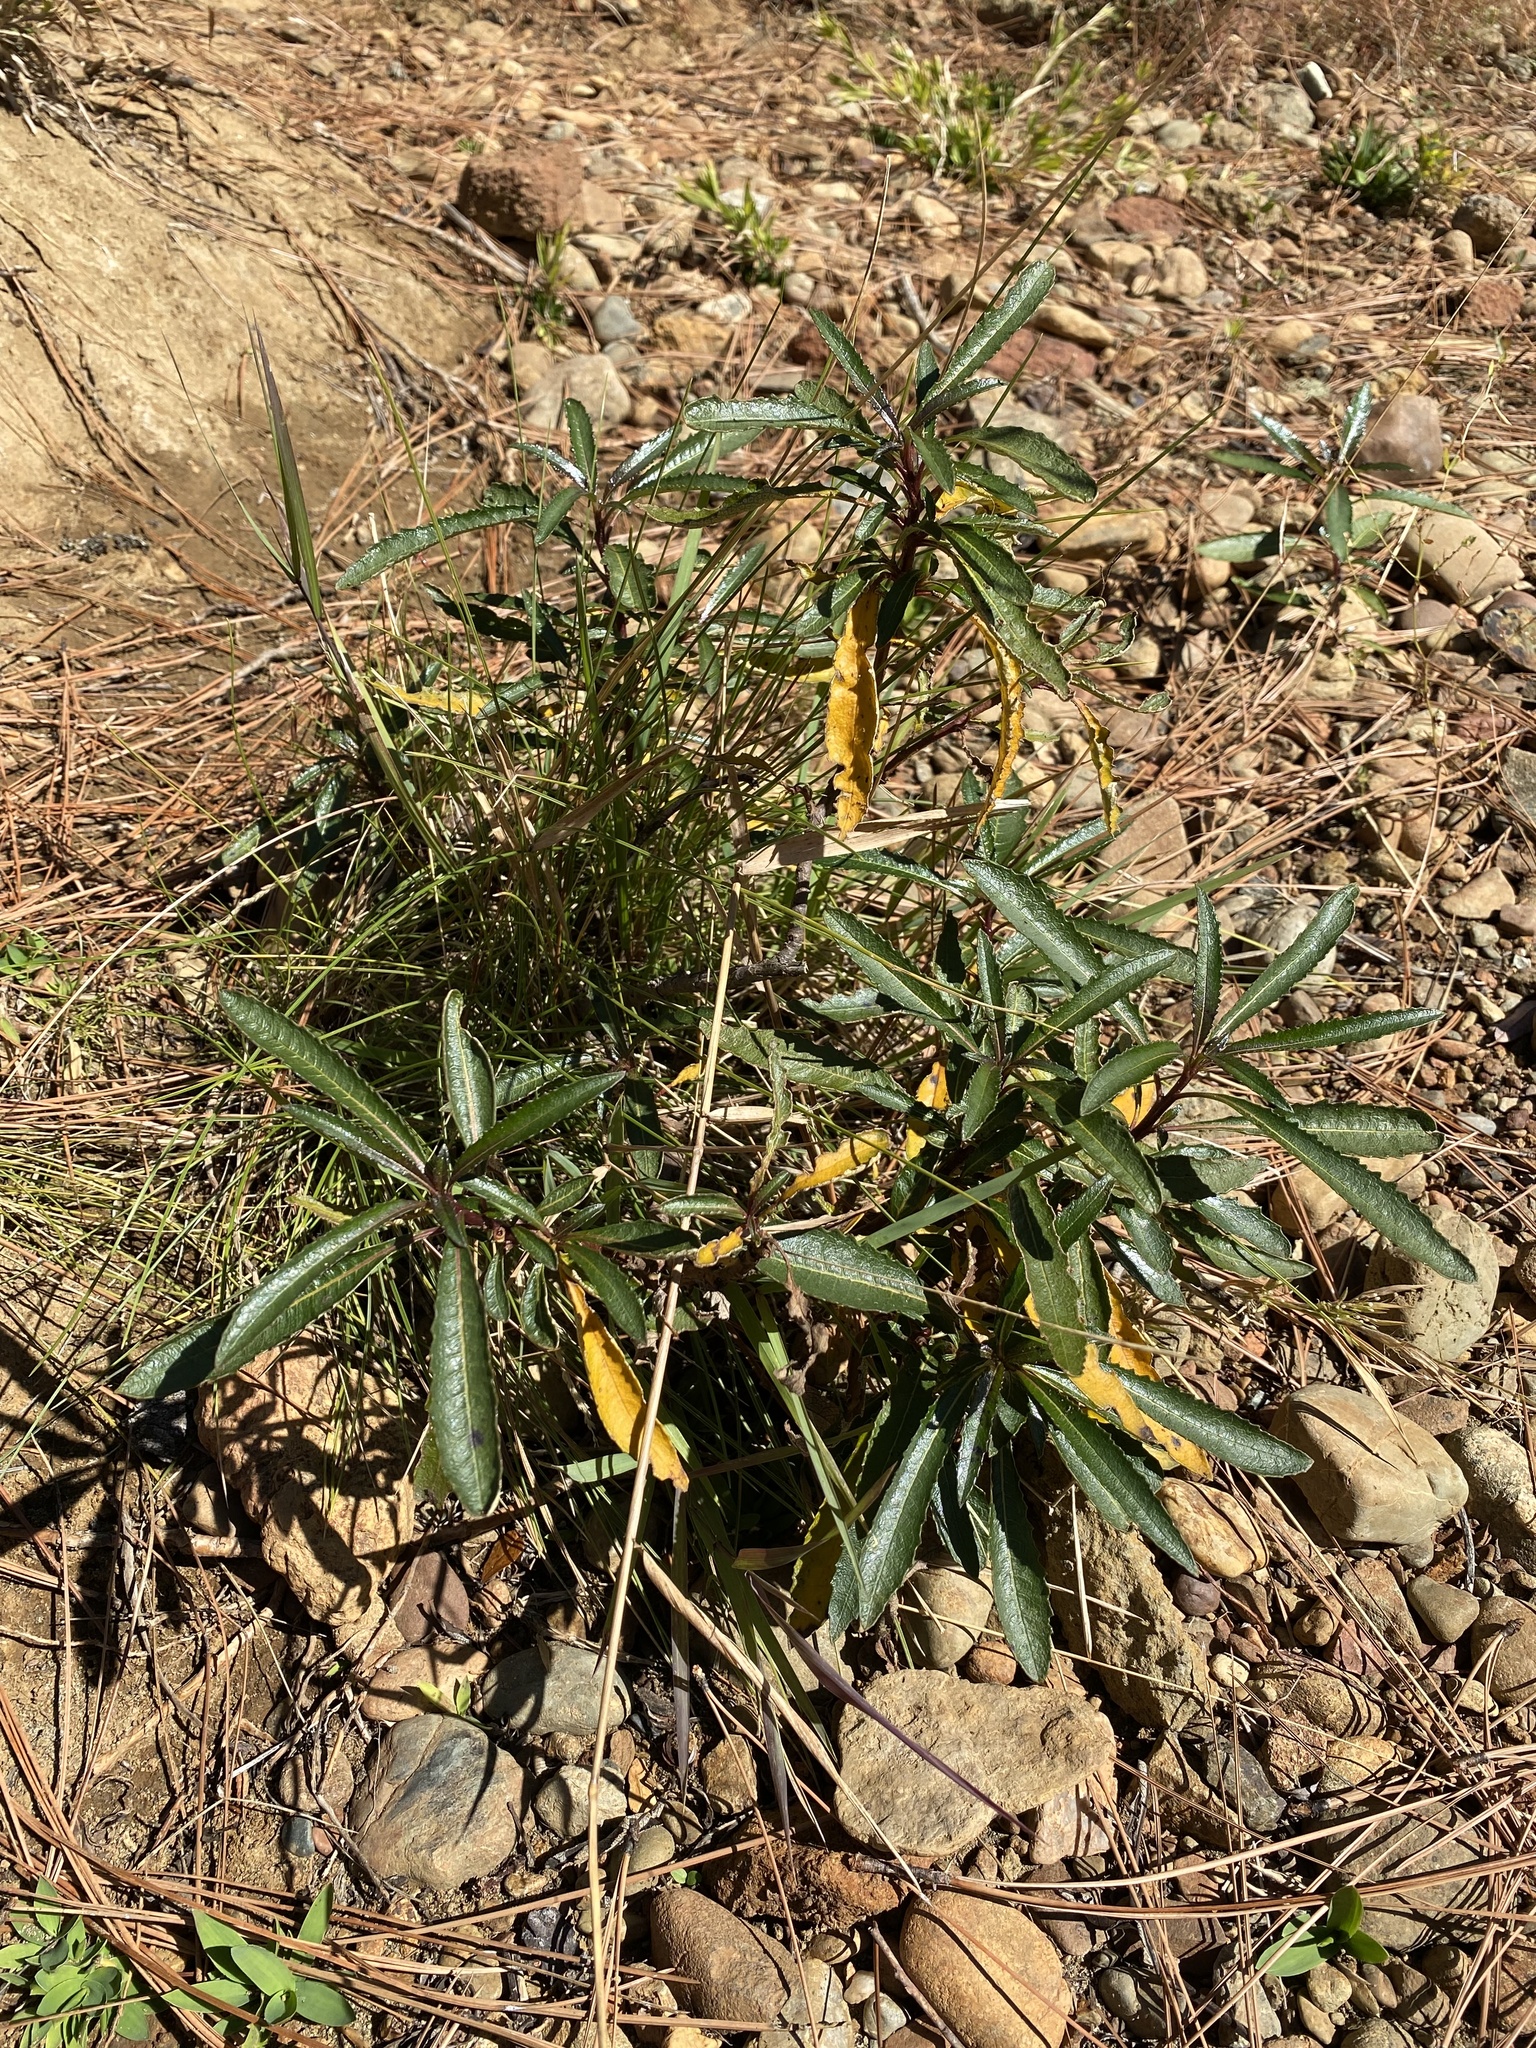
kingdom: Plantae
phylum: Tracheophyta
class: Magnoliopsida
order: Boraginales
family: Namaceae
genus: Eriodictyon
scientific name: Eriodictyon californicum
